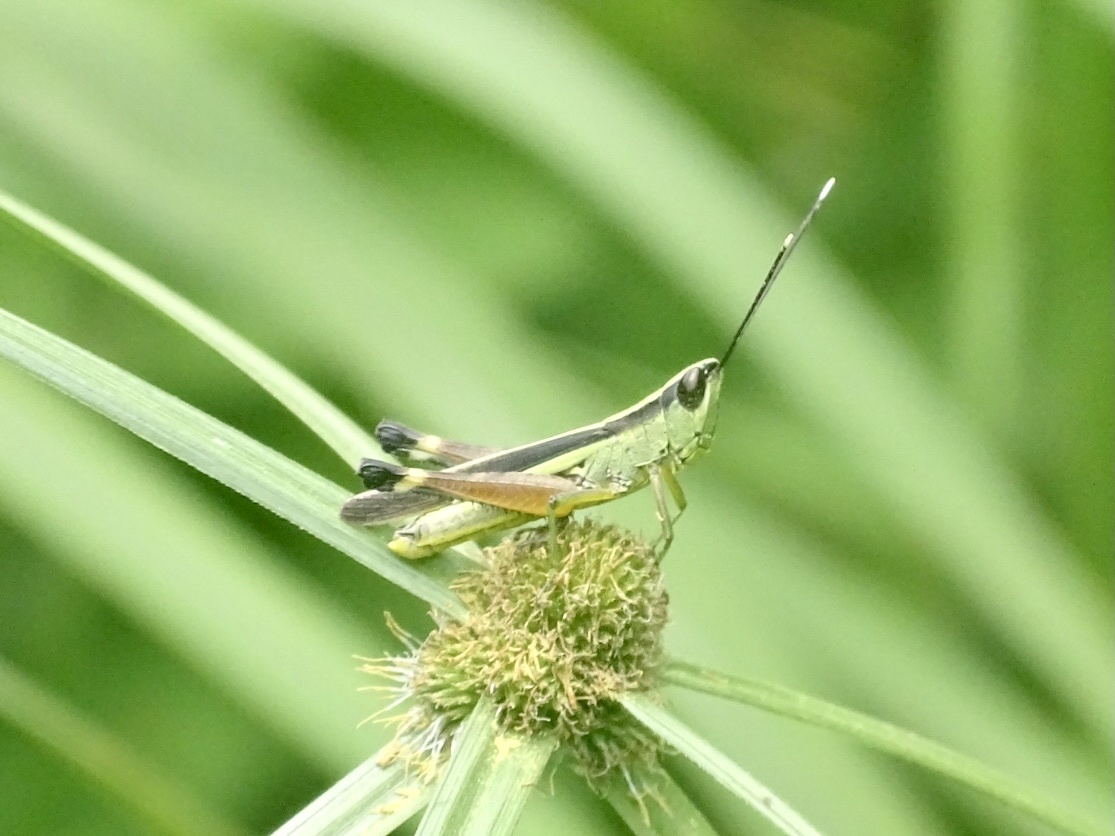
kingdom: Animalia
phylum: Arthropoda
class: Insecta
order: Orthoptera
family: Acrididae
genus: Ceracris
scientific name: Ceracris fasciata
